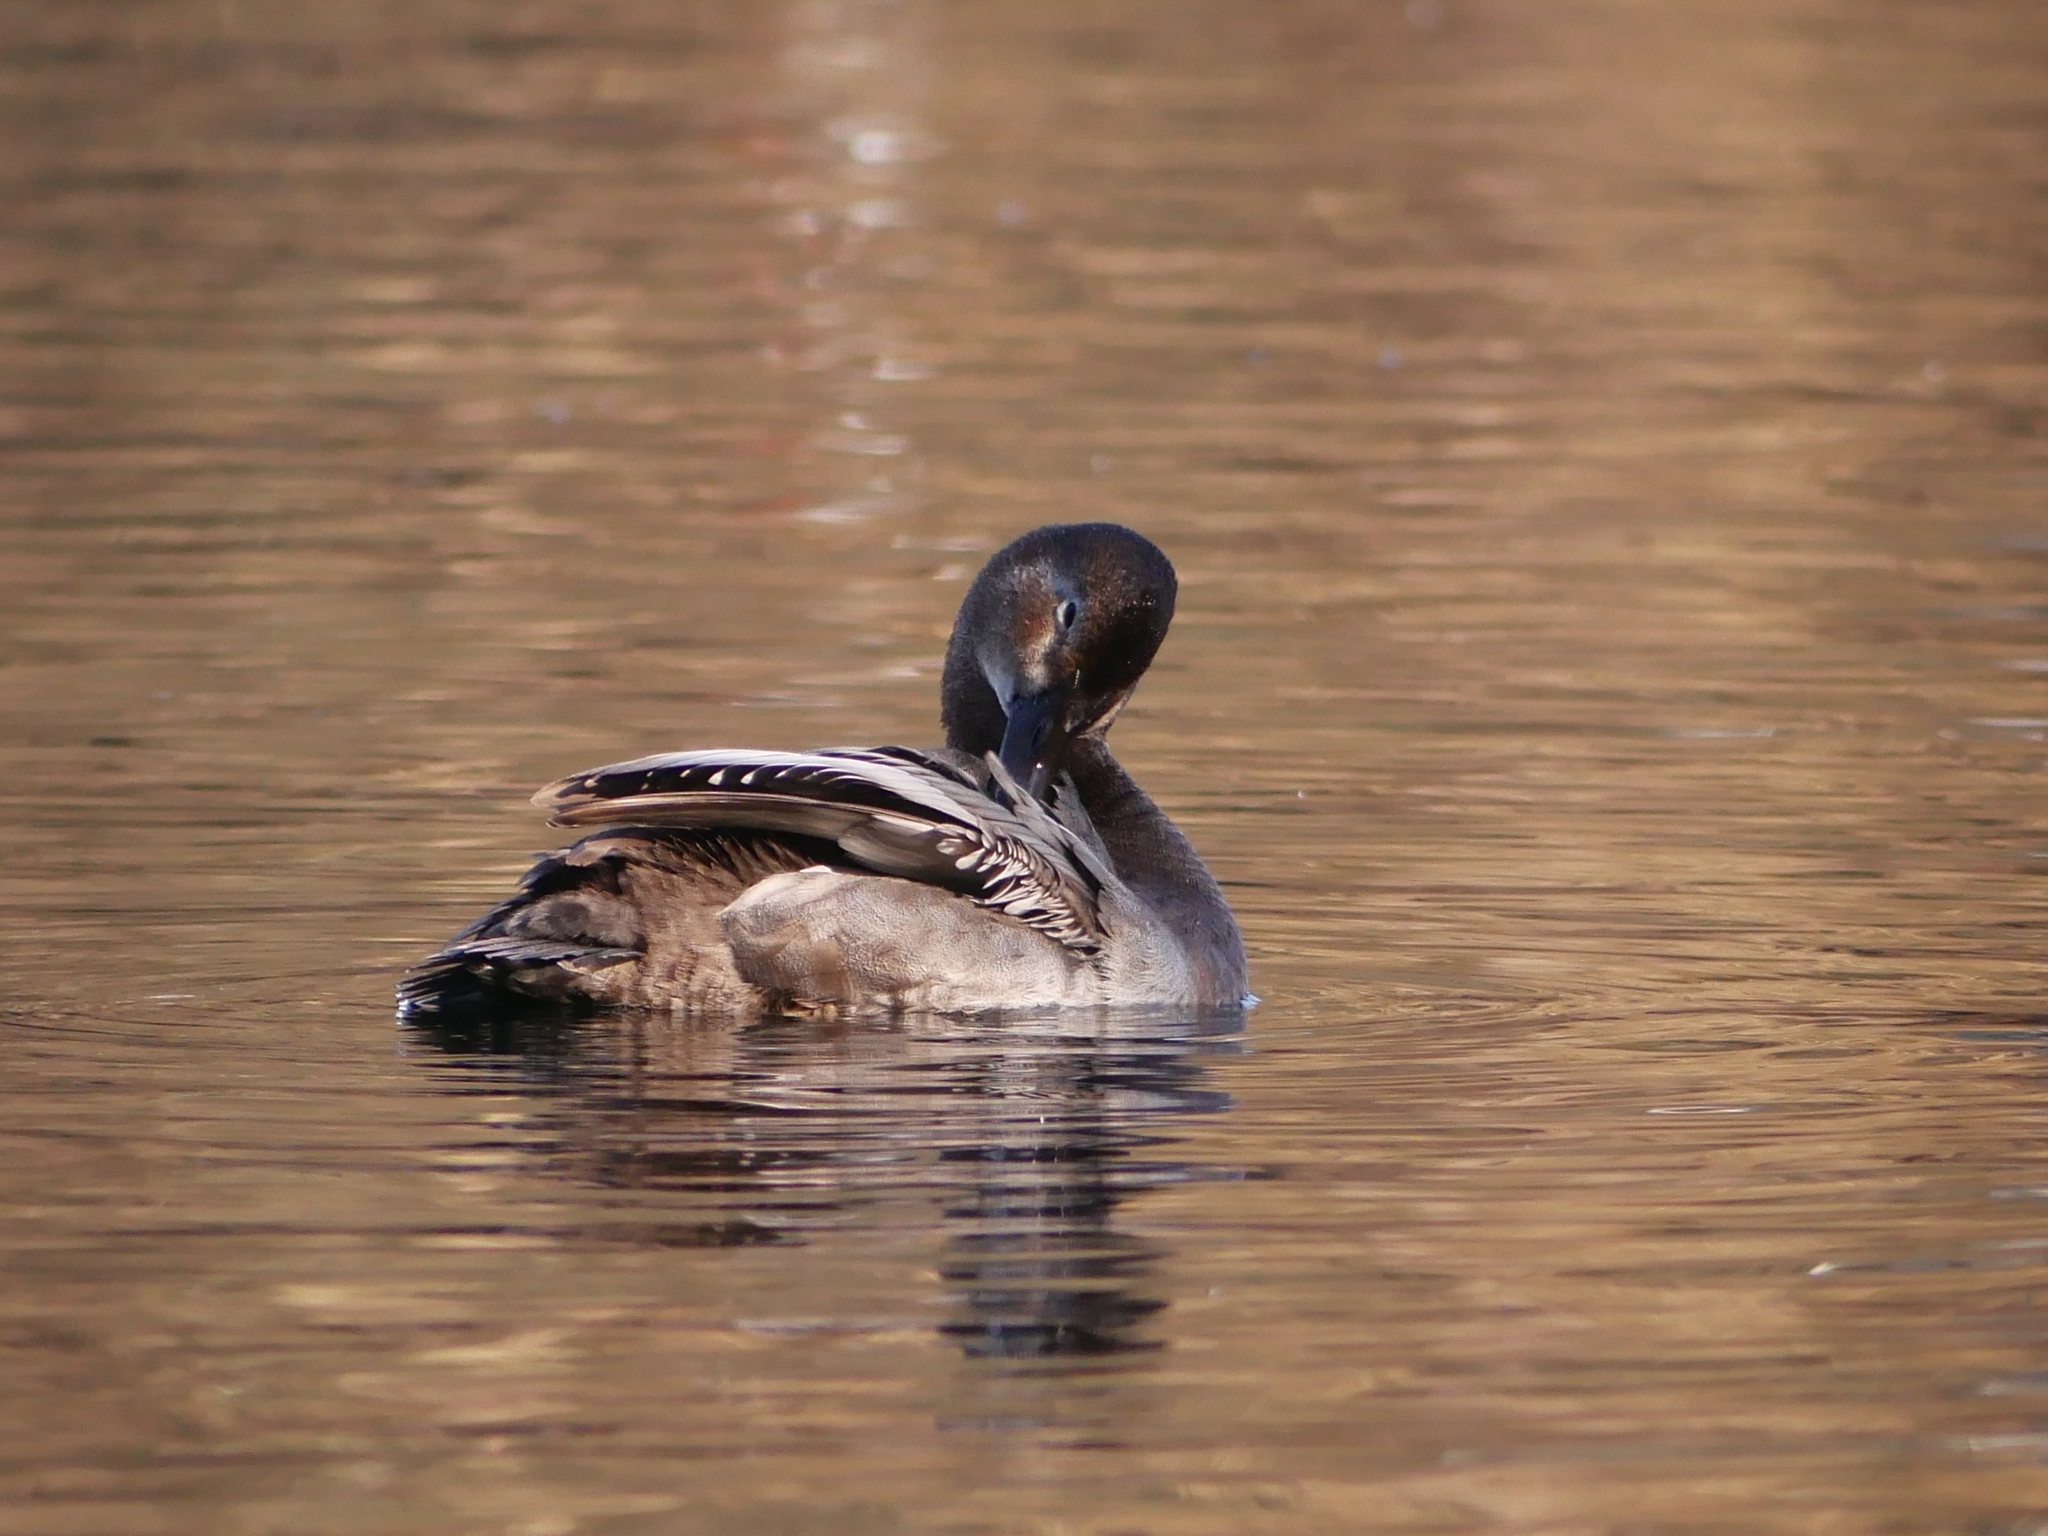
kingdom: Animalia
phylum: Chordata
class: Aves
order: Anseriformes
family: Anatidae
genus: Aythya
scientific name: Aythya ferina
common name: Common pochard
